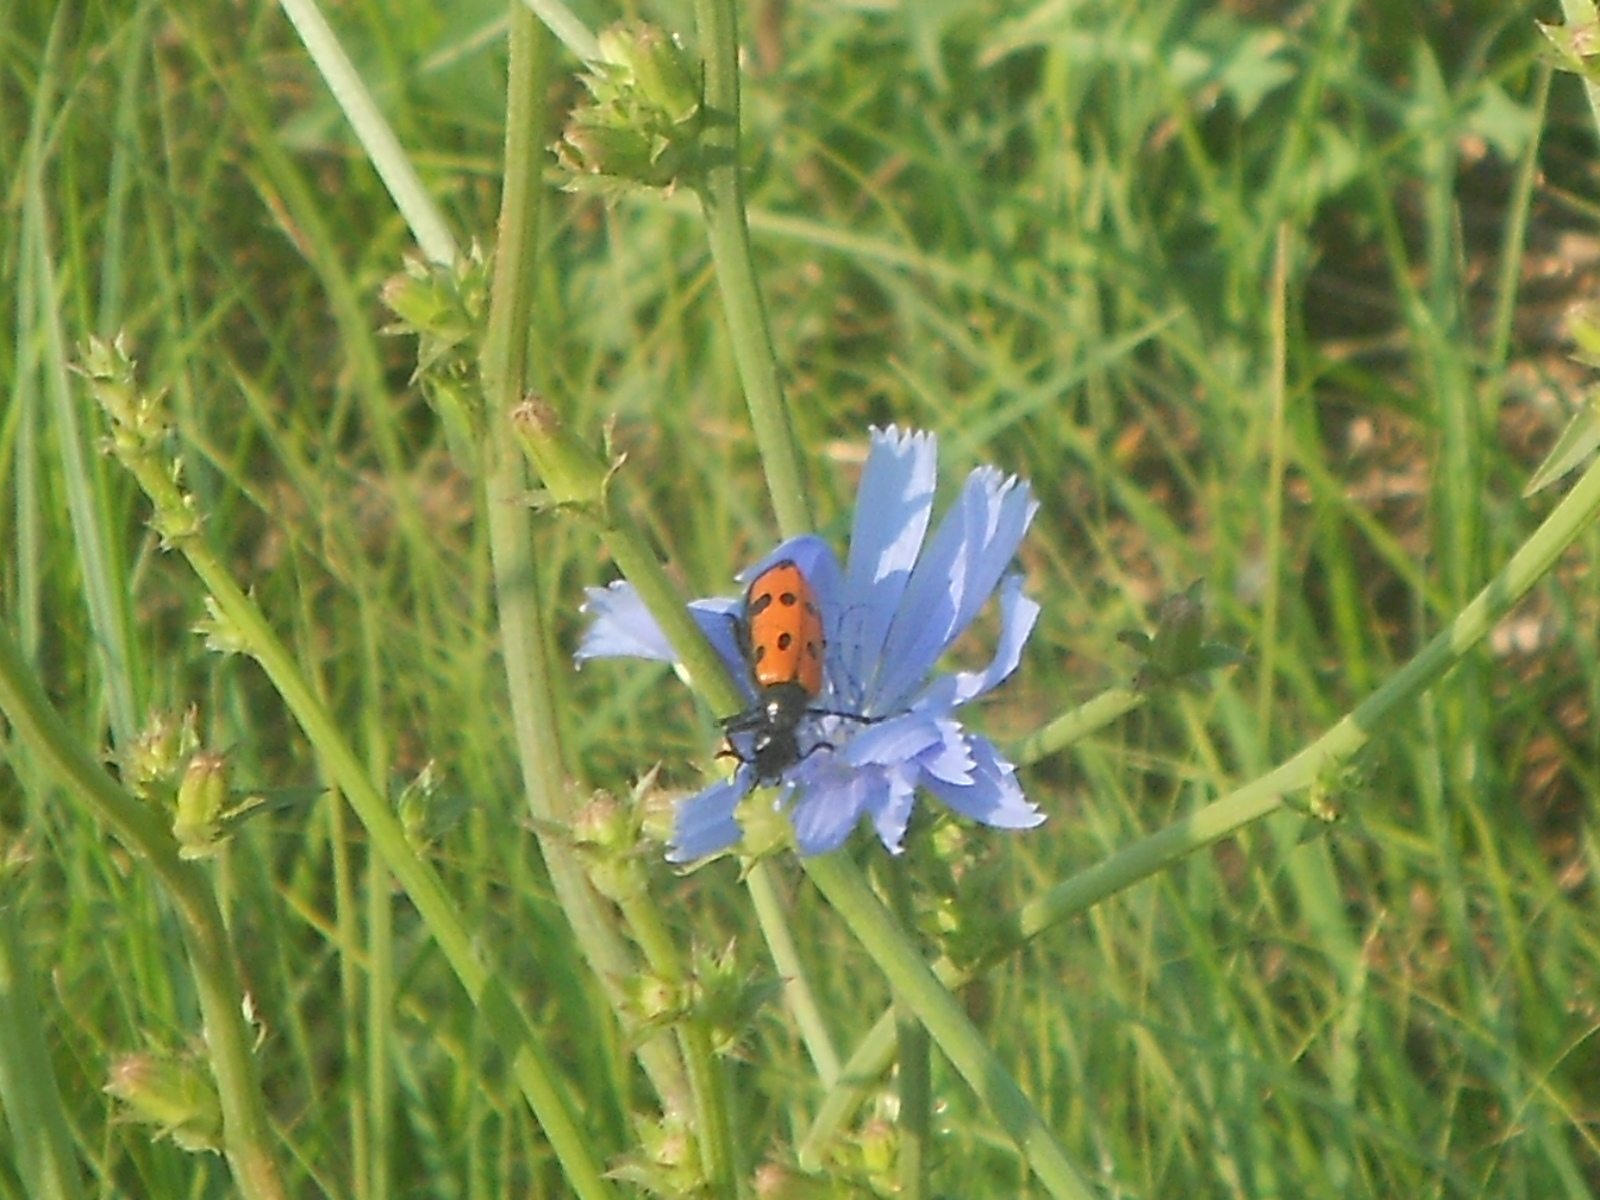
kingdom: Animalia
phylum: Arthropoda
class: Insecta
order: Coleoptera
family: Meloidae
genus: Mylabris
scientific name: Mylabris quadripunctata
